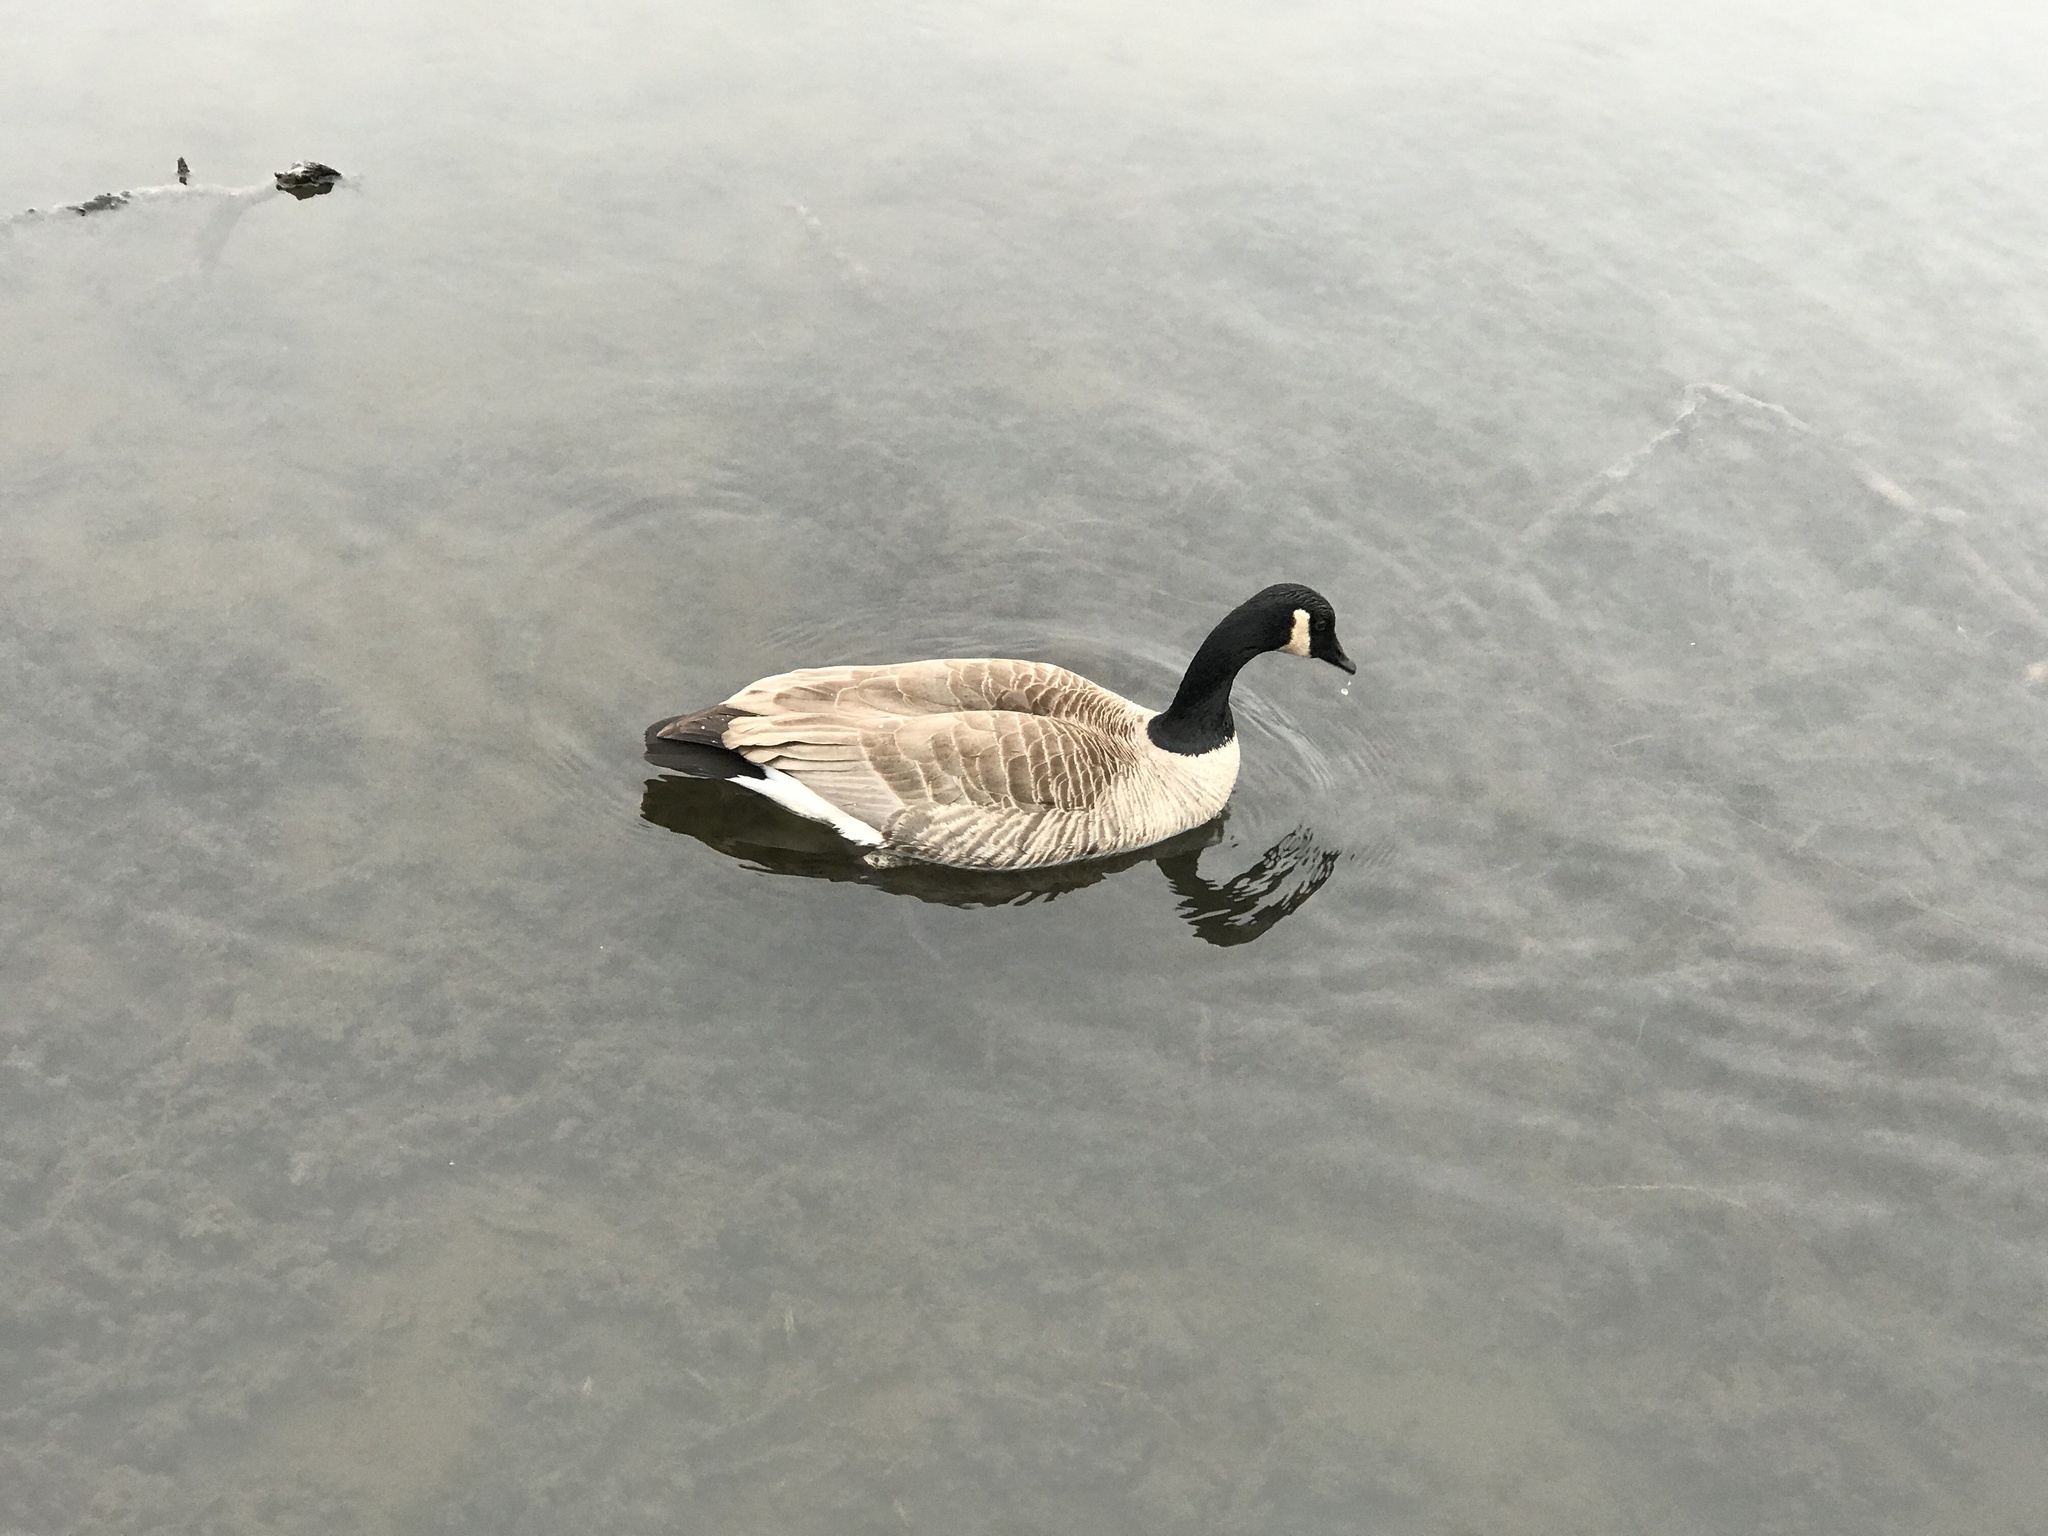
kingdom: Animalia
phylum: Chordata
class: Aves
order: Anseriformes
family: Anatidae
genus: Branta
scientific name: Branta canadensis
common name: Canada goose
